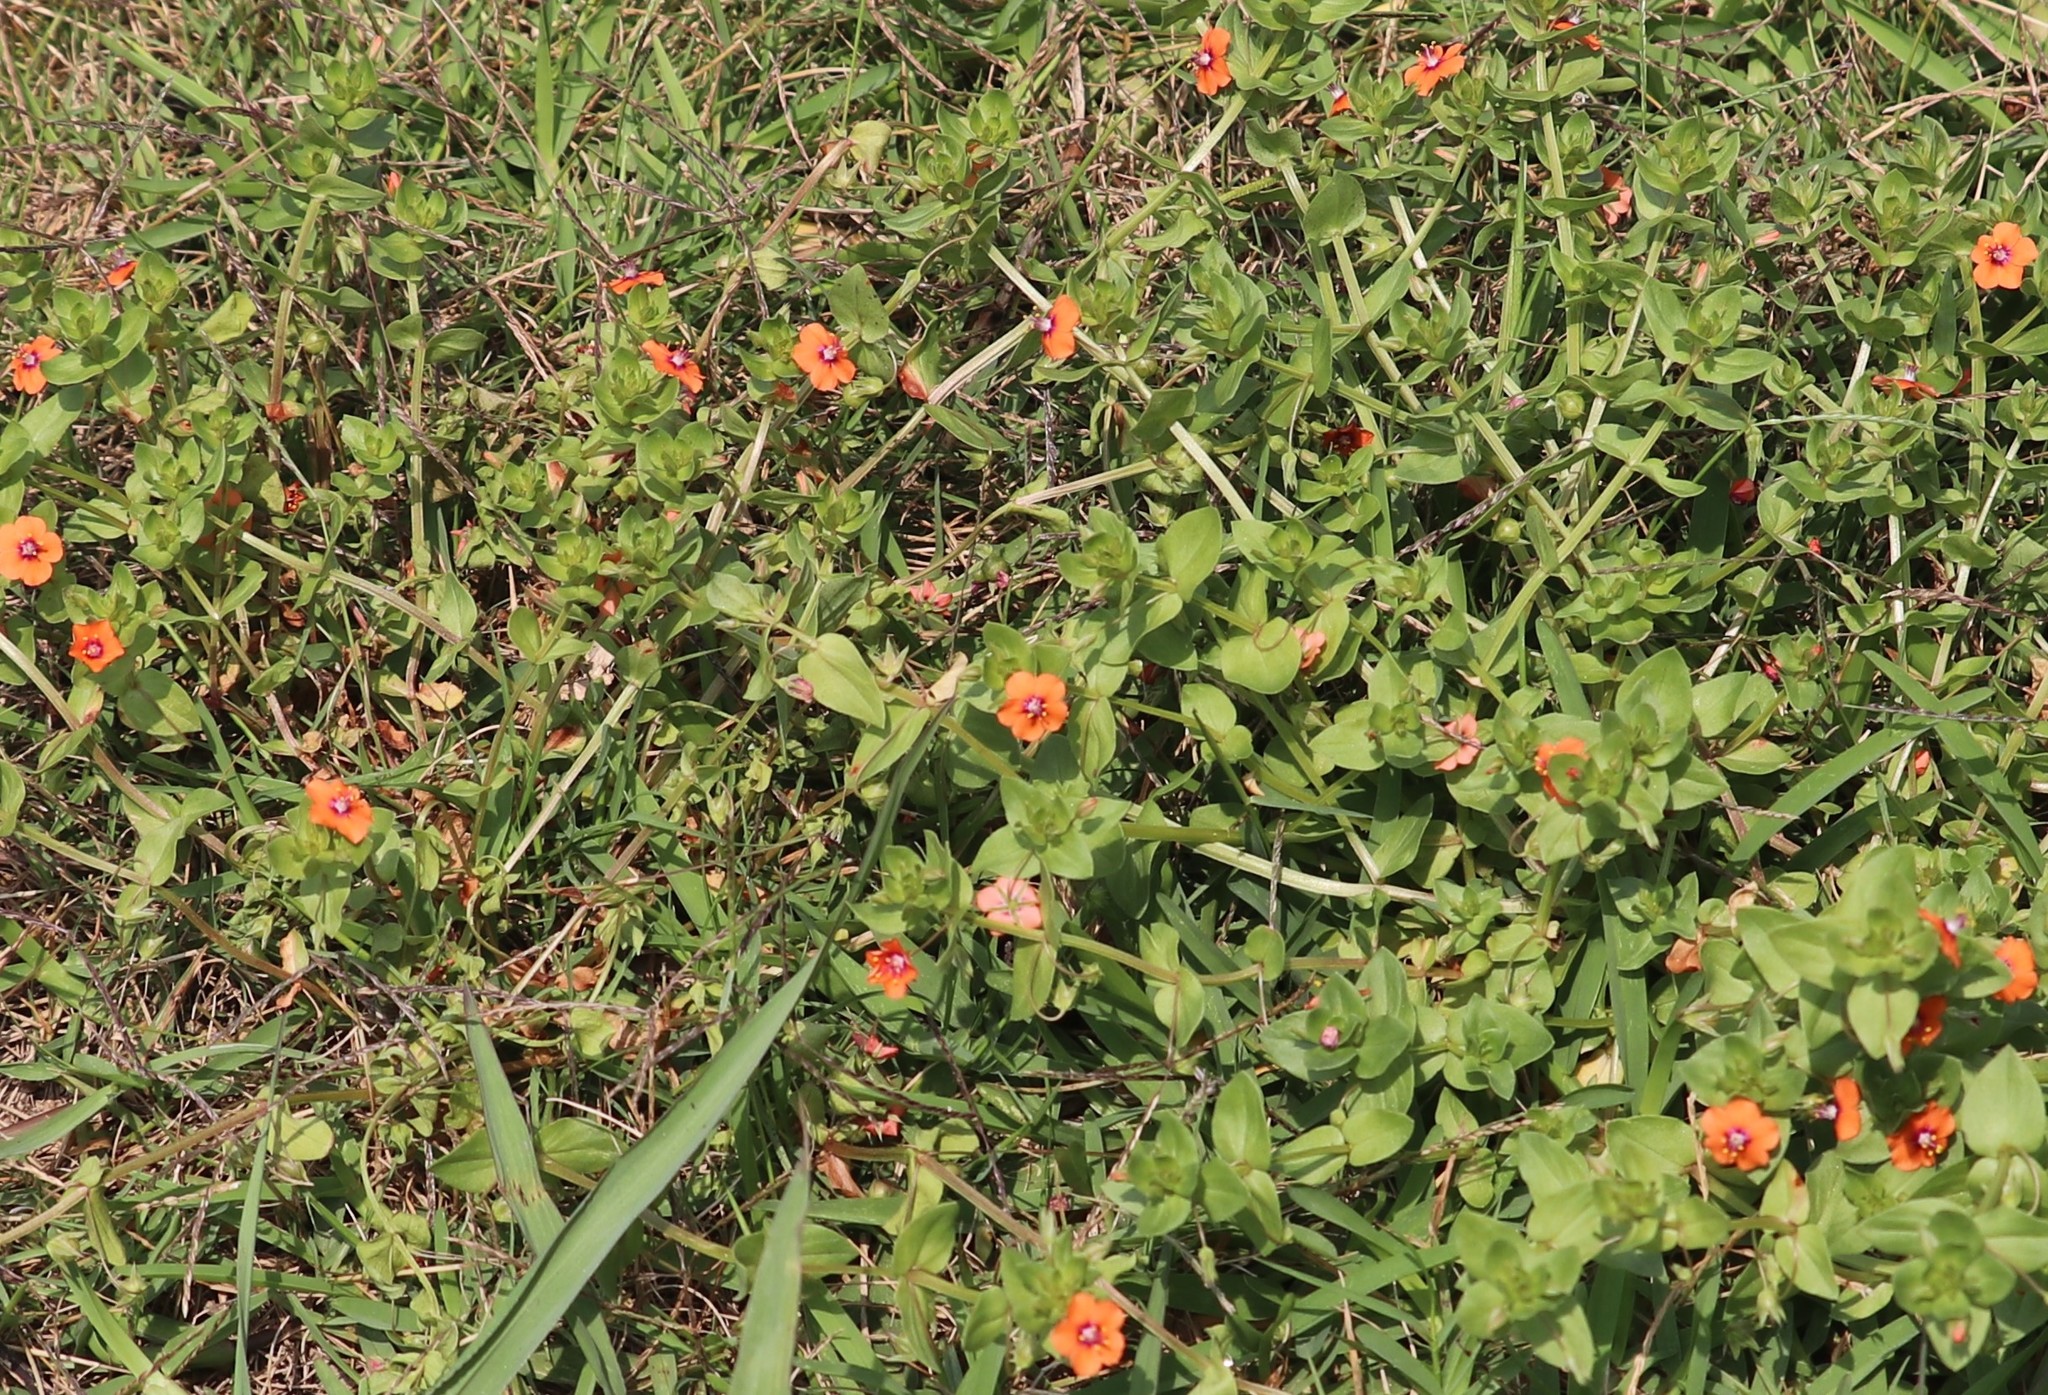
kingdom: Plantae
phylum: Tracheophyta
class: Magnoliopsida
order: Ericales
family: Primulaceae
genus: Lysimachia
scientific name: Lysimachia arvensis
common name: Scarlet pimpernel
